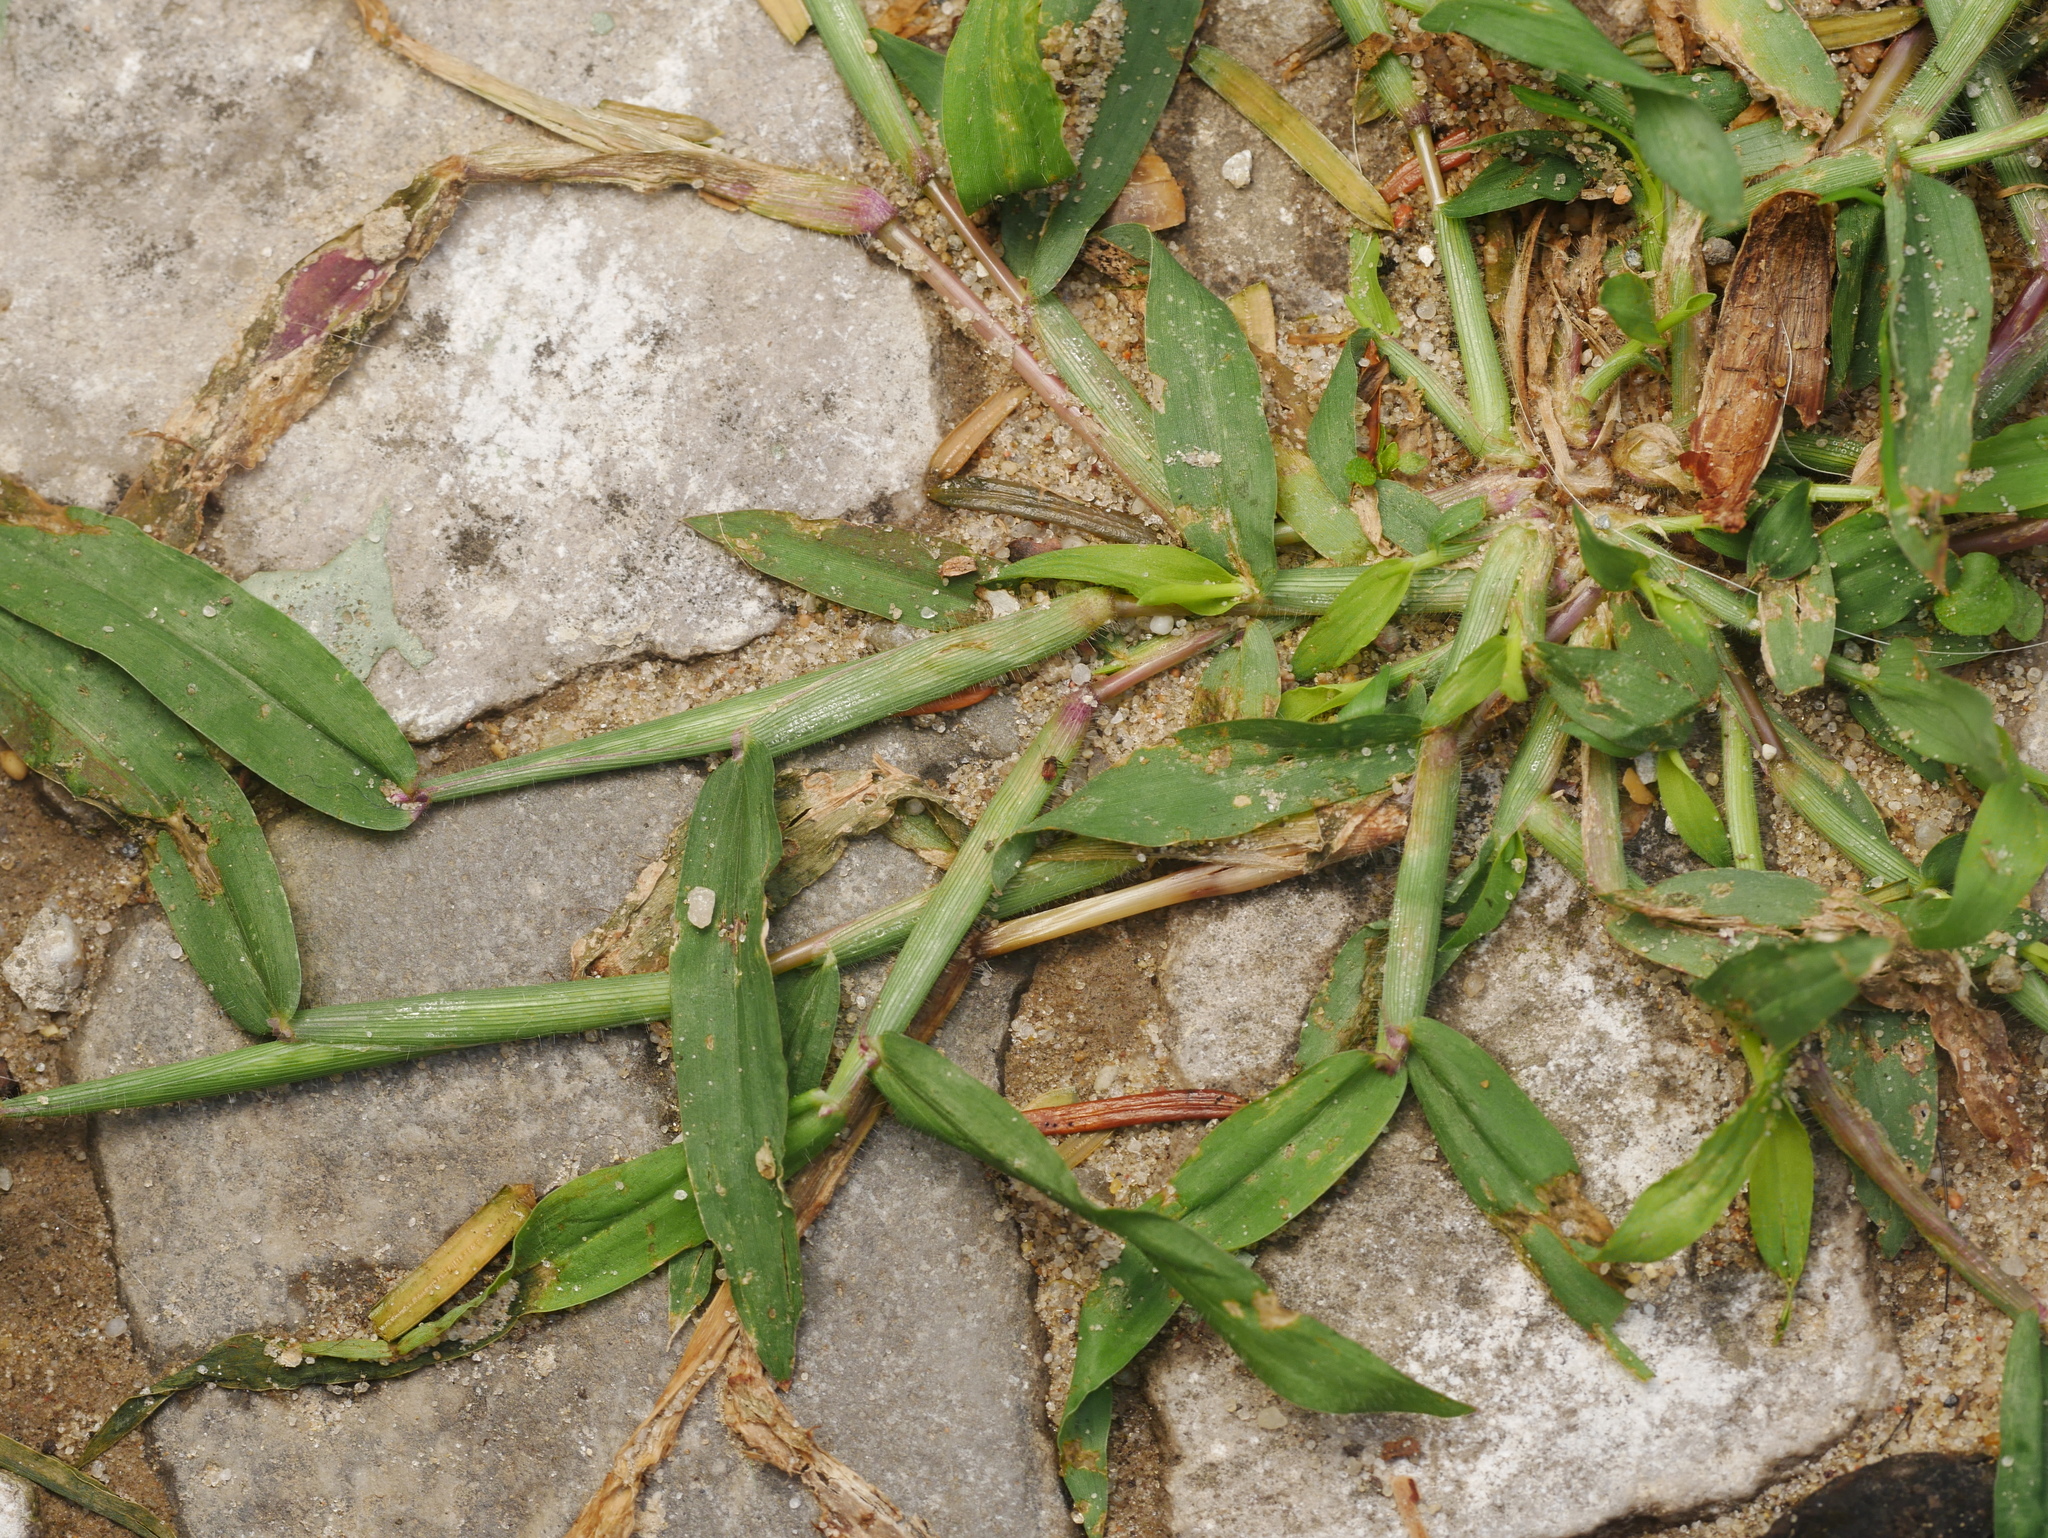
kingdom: Plantae
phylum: Tracheophyta
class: Liliopsida
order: Poales
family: Poaceae
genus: Digitaria
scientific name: Digitaria sanguinalis
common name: Hairy crabgrass
